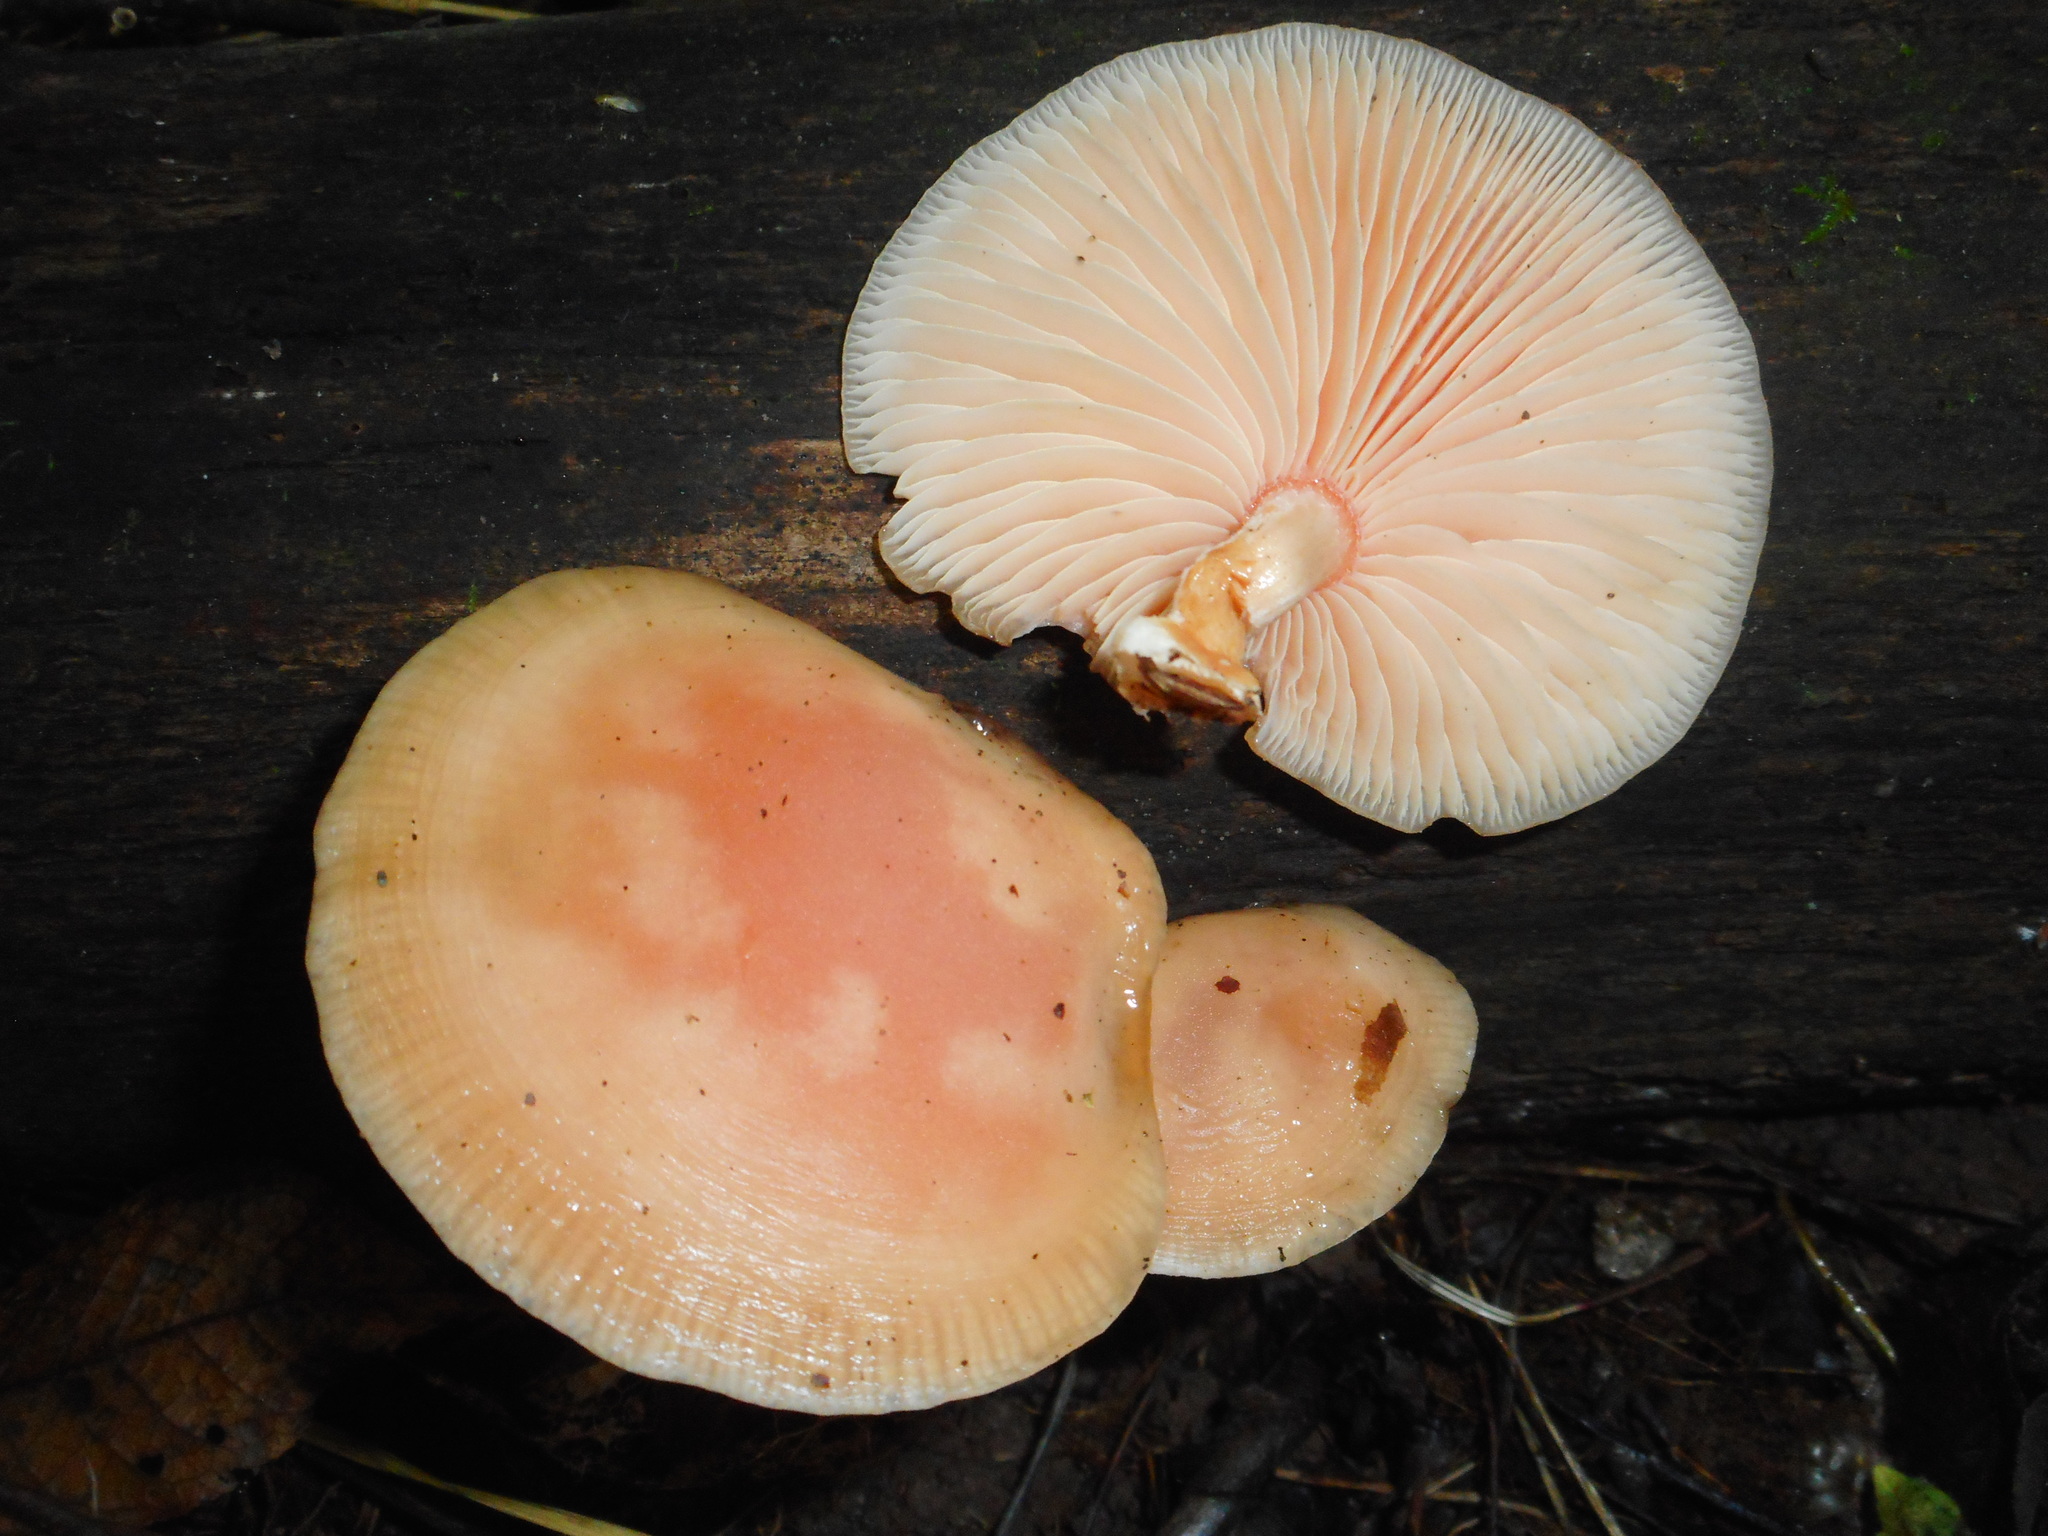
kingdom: Fungi
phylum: Basidiomycota
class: Agaricomycetes
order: Agaricales
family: Physalacriaceae
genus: Rhodotus
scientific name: Rhodotus palmatus
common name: Wrinkled peach
